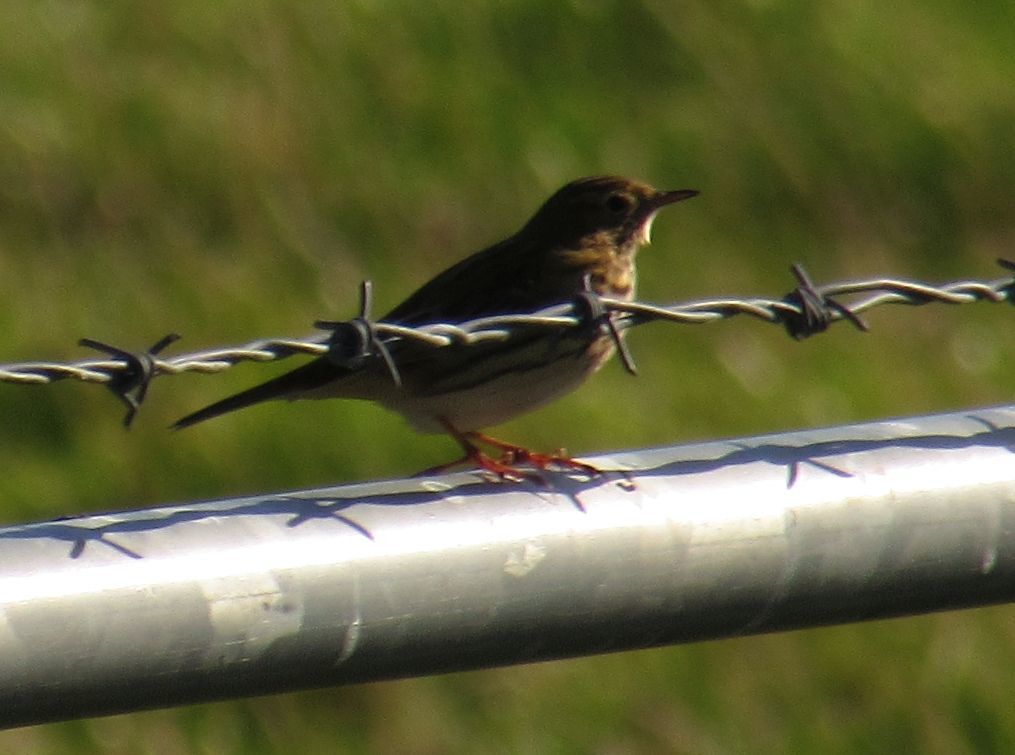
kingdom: Animalia
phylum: Chordata
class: Aves
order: Passeriformes
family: Motacillidae
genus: Anthus
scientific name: Anthus pratensis
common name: Meadow pipit
